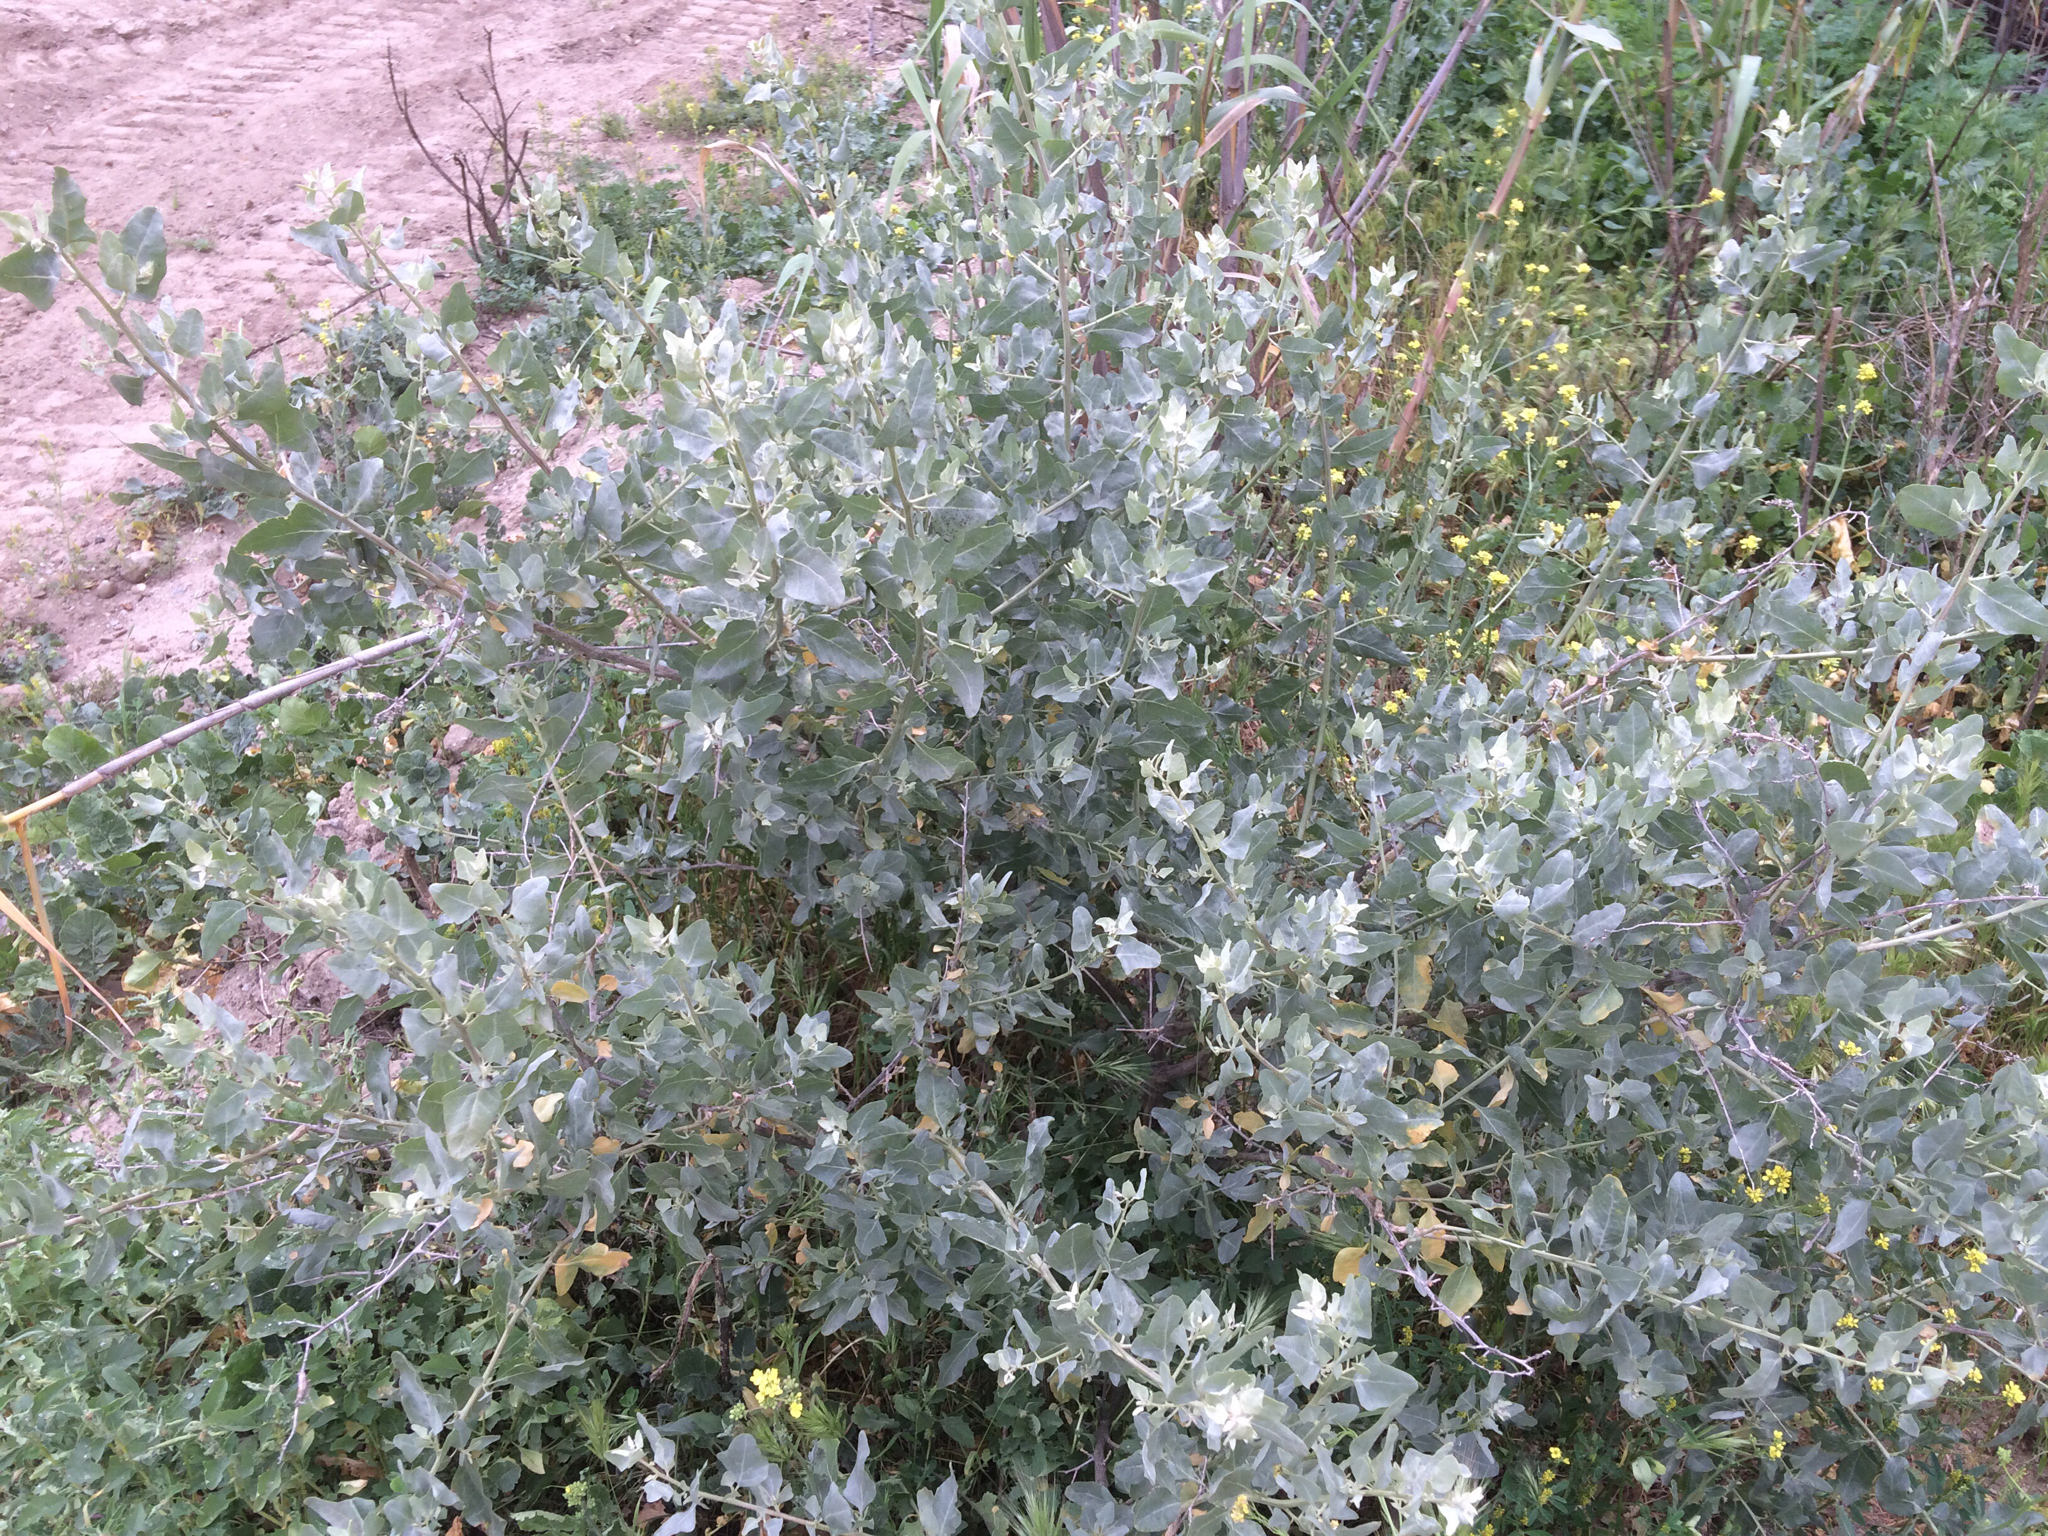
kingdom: Plantae
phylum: Tracheophyta
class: Magnoliopsida
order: Caryophyllales
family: Amaranthaceae
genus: Atriplex
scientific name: Atriplex lentiformis
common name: Big saltbush
